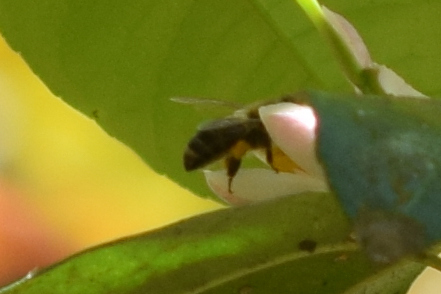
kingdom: Animalia
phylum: Arthropoda
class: Insecta
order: Hymenoptera
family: Apidae
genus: Apis
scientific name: Apis mellifera
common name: Honey bee
